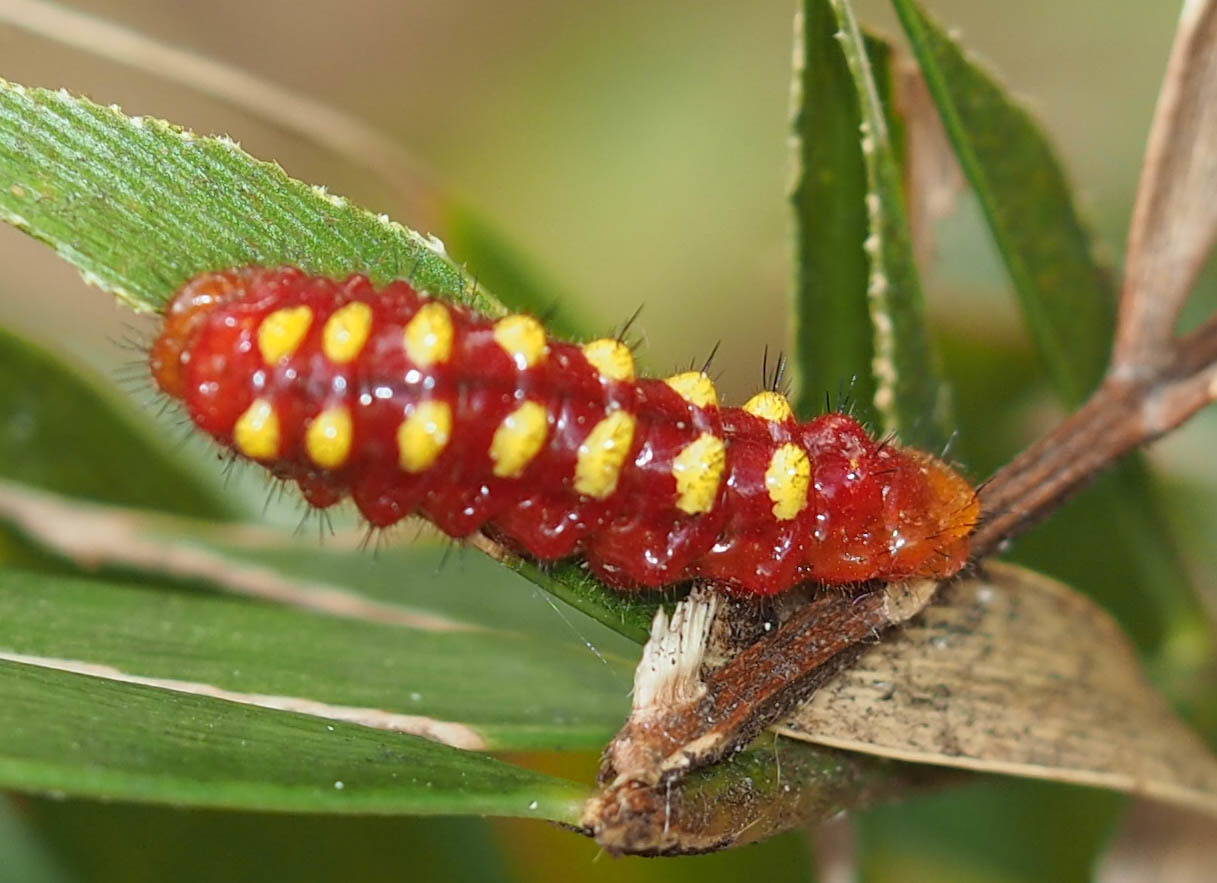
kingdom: Animalia
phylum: Arthropoda
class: Insecta
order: Lepidoptera
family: Lycaenidae
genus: Eumaeus
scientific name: Eumaeus atala
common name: Atala
